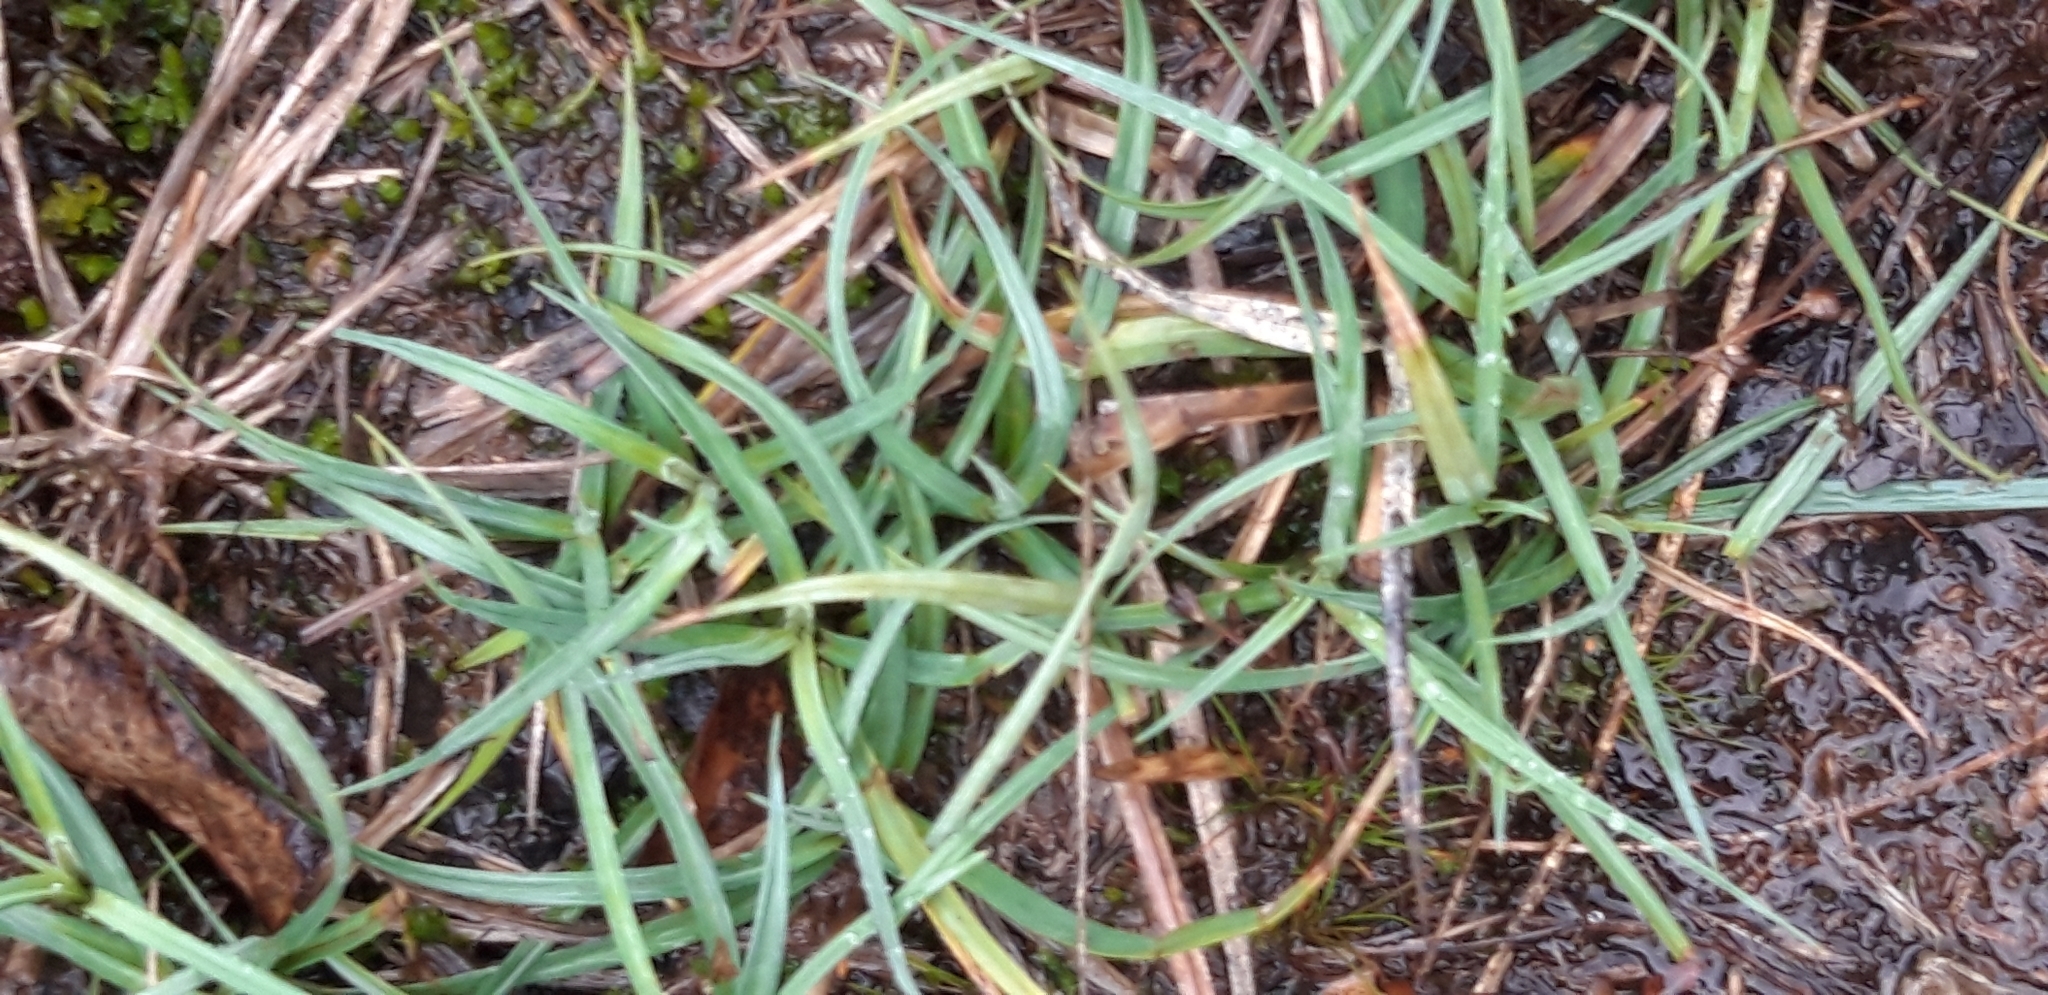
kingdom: Plantae
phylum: Tracheophyta
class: Liliopsida
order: Poales
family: Cyperaceae
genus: Carex
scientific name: Carex panicea
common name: Carnation sedge
